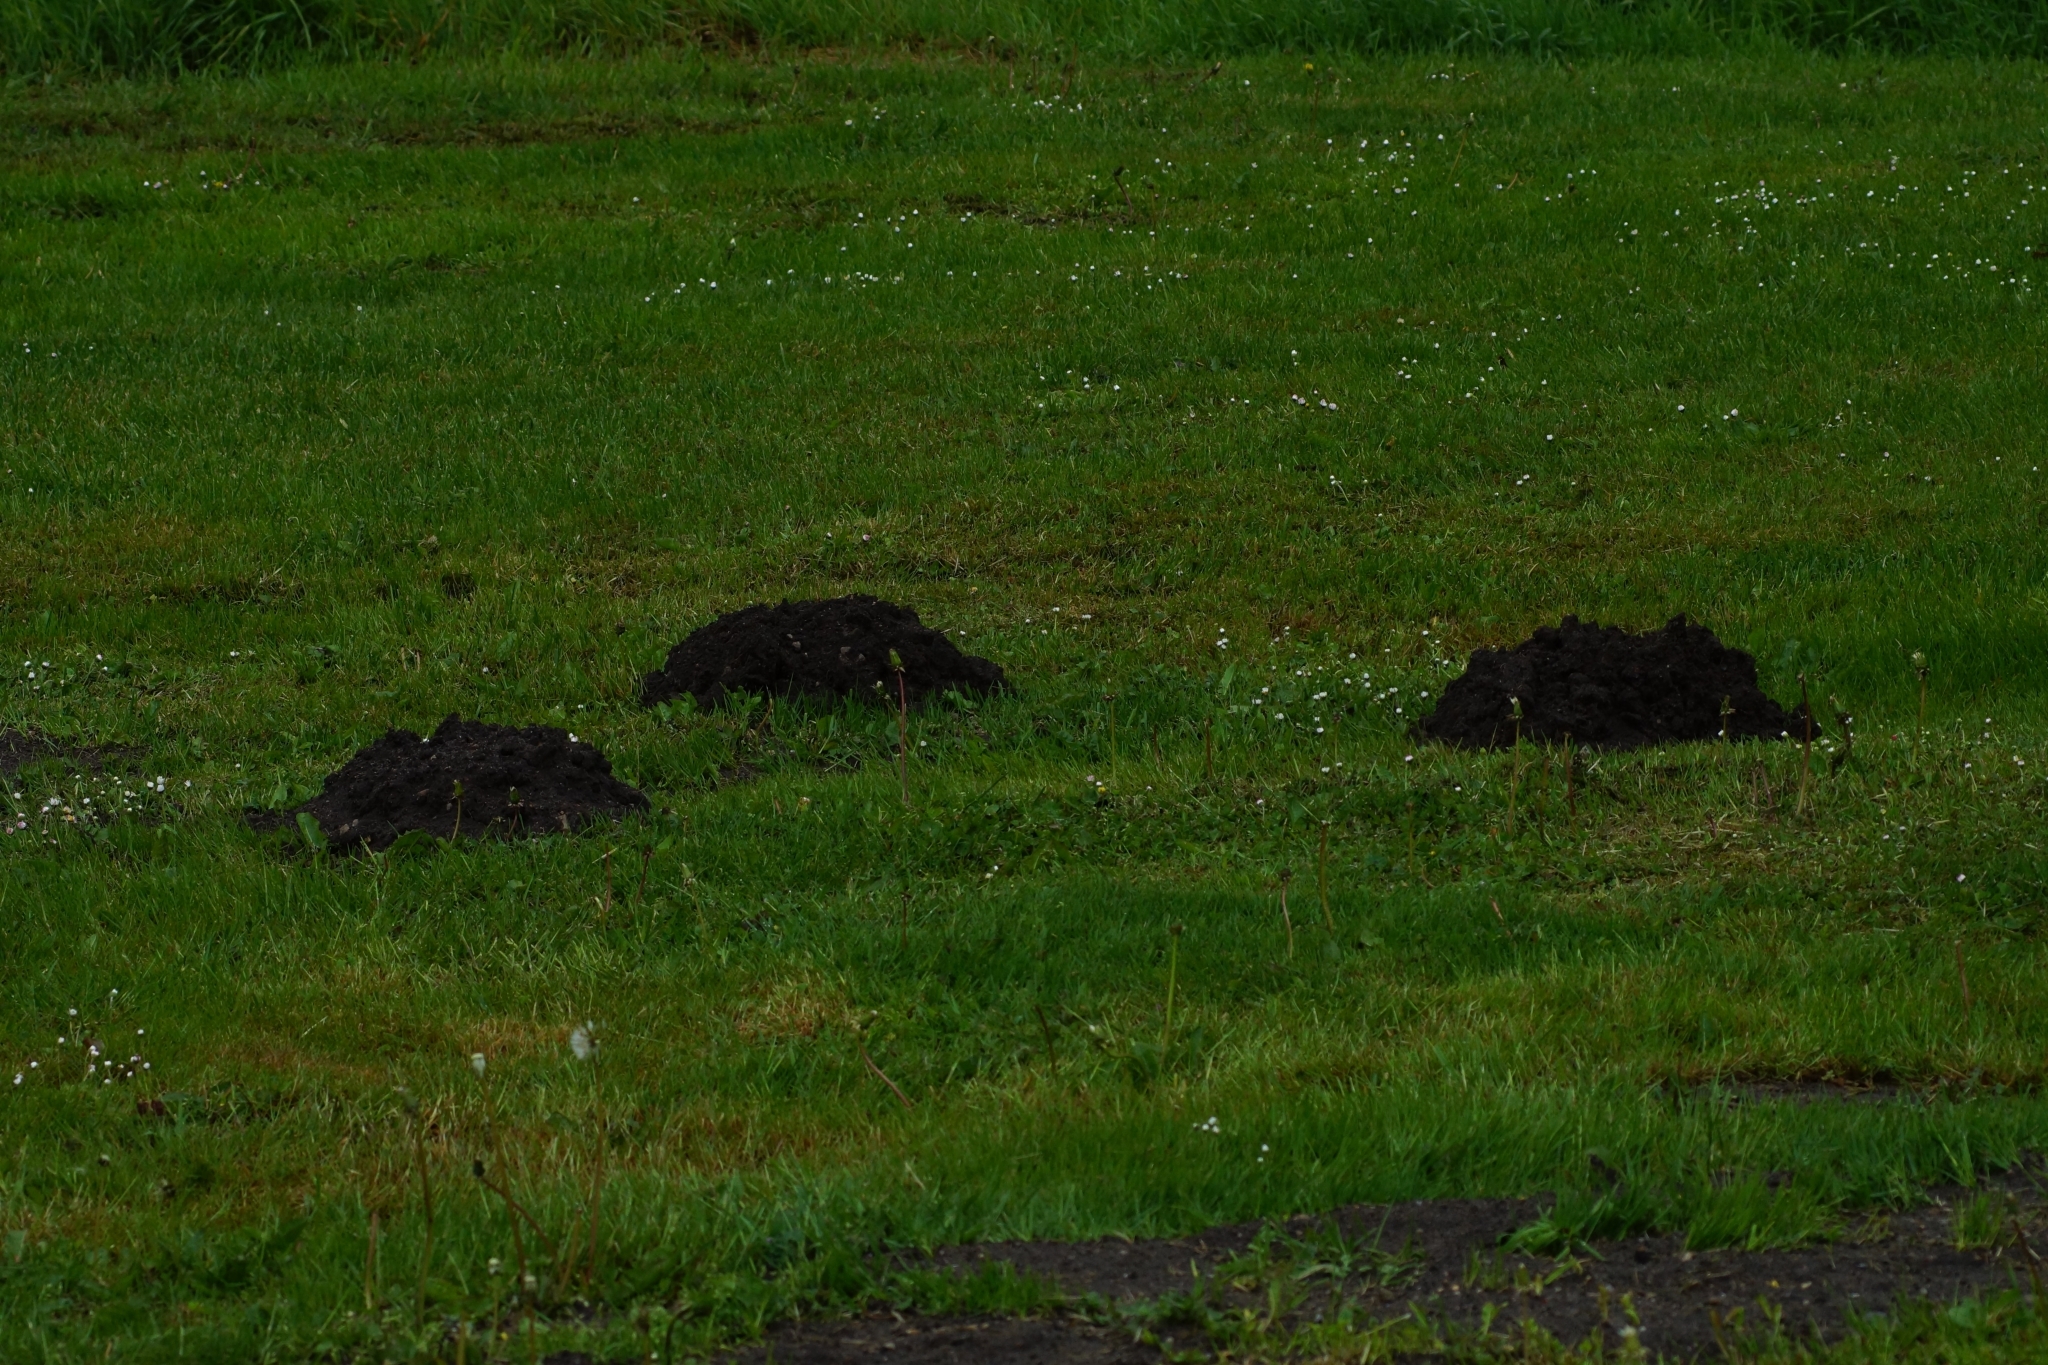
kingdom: Animalia
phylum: Chordata
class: Mammalia
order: Soricomorpha
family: Talpidae
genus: Talpa
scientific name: Talpa europaea
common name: European mole
